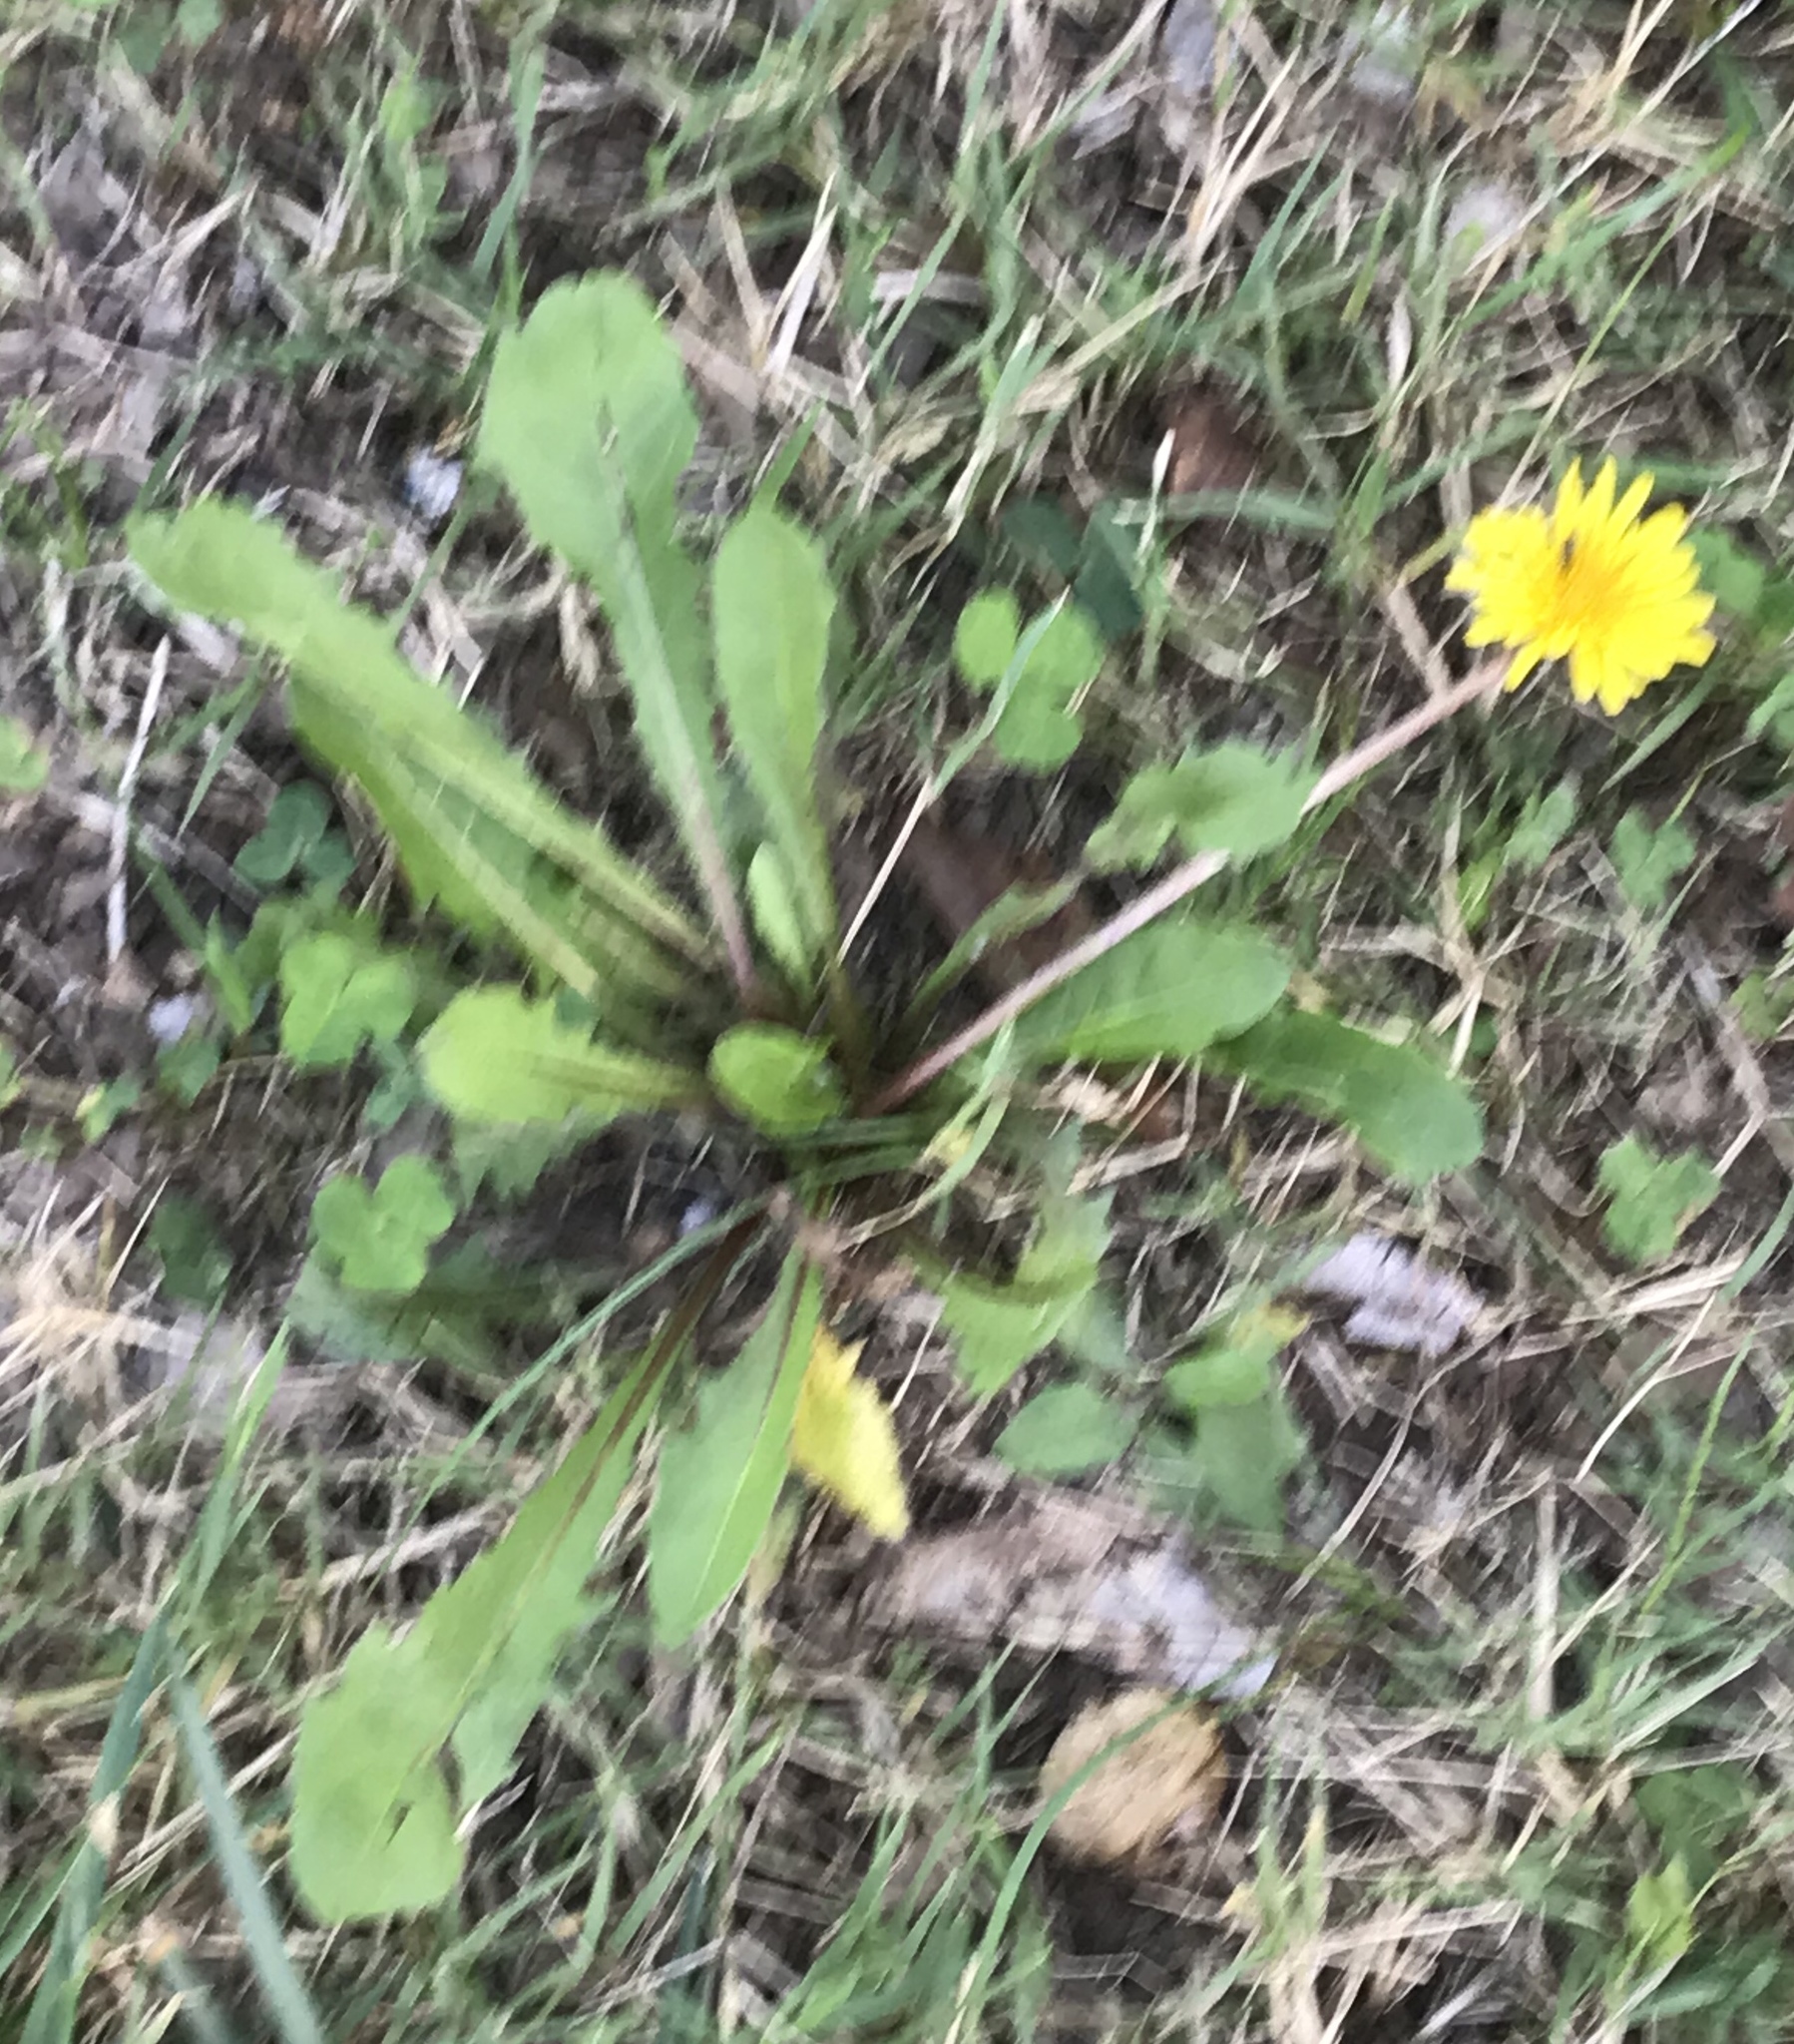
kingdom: Plantae
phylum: Tracheophyta
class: Magnoliopsida
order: Asterales
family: Asteraceae
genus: Taraxacum
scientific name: Taraxacum
